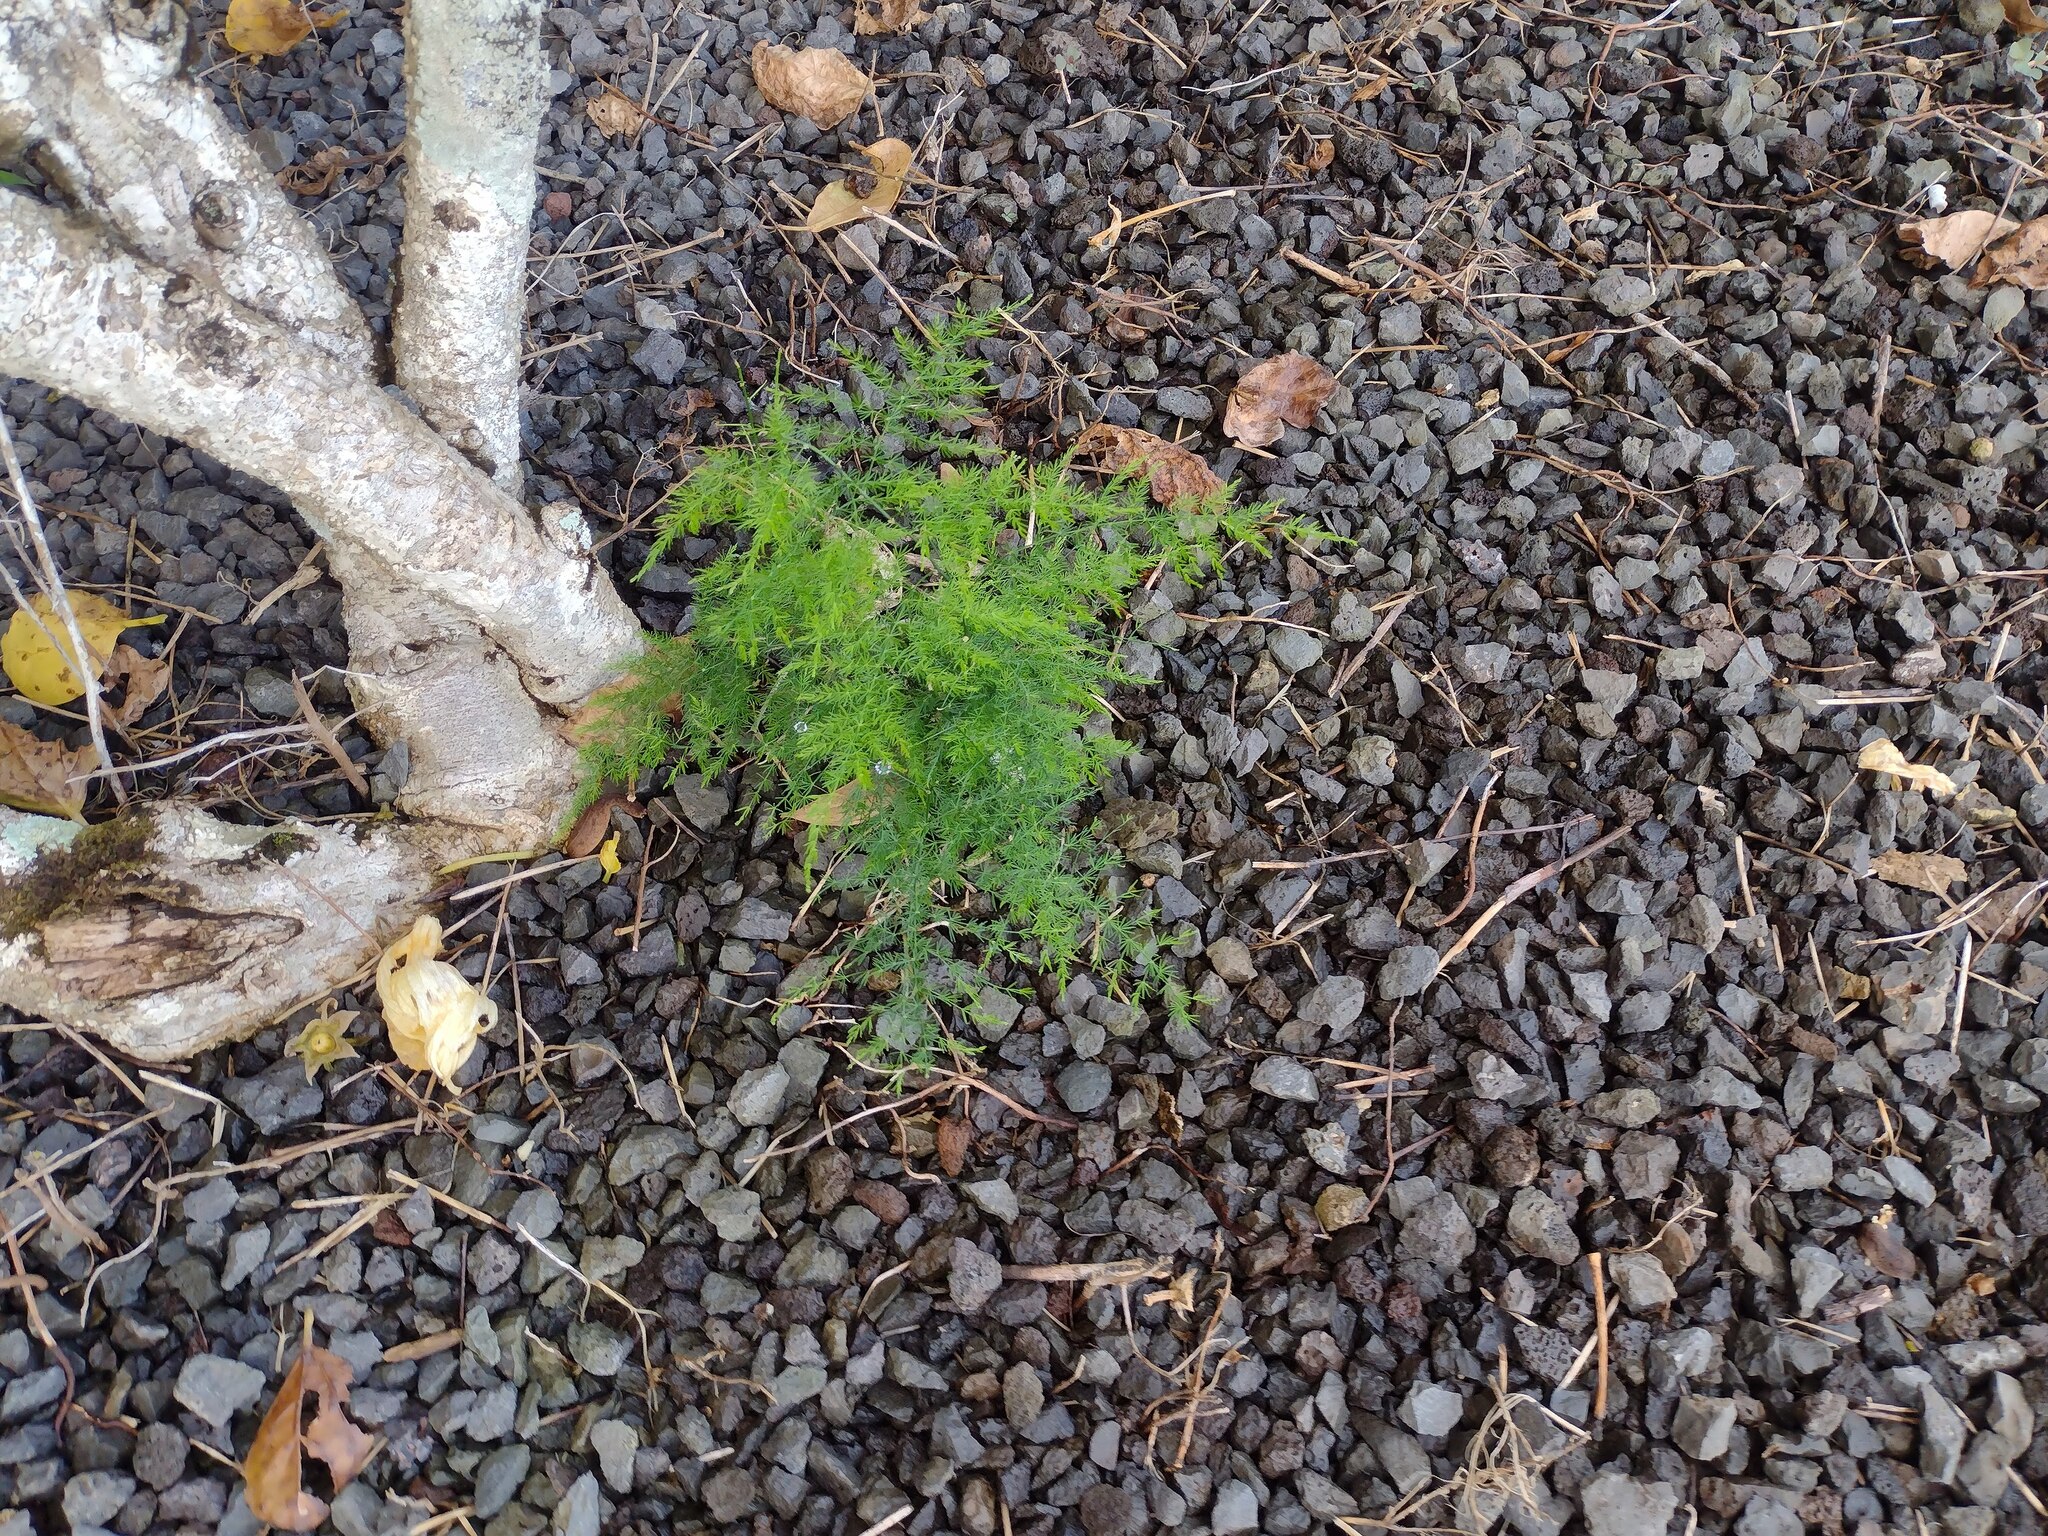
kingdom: Plantae
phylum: Tracheophyta
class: Liliopsida
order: Asparagales
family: Asparagaceae
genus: Asparagus
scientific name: Asparagus setaceus
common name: Common asparagus fern
